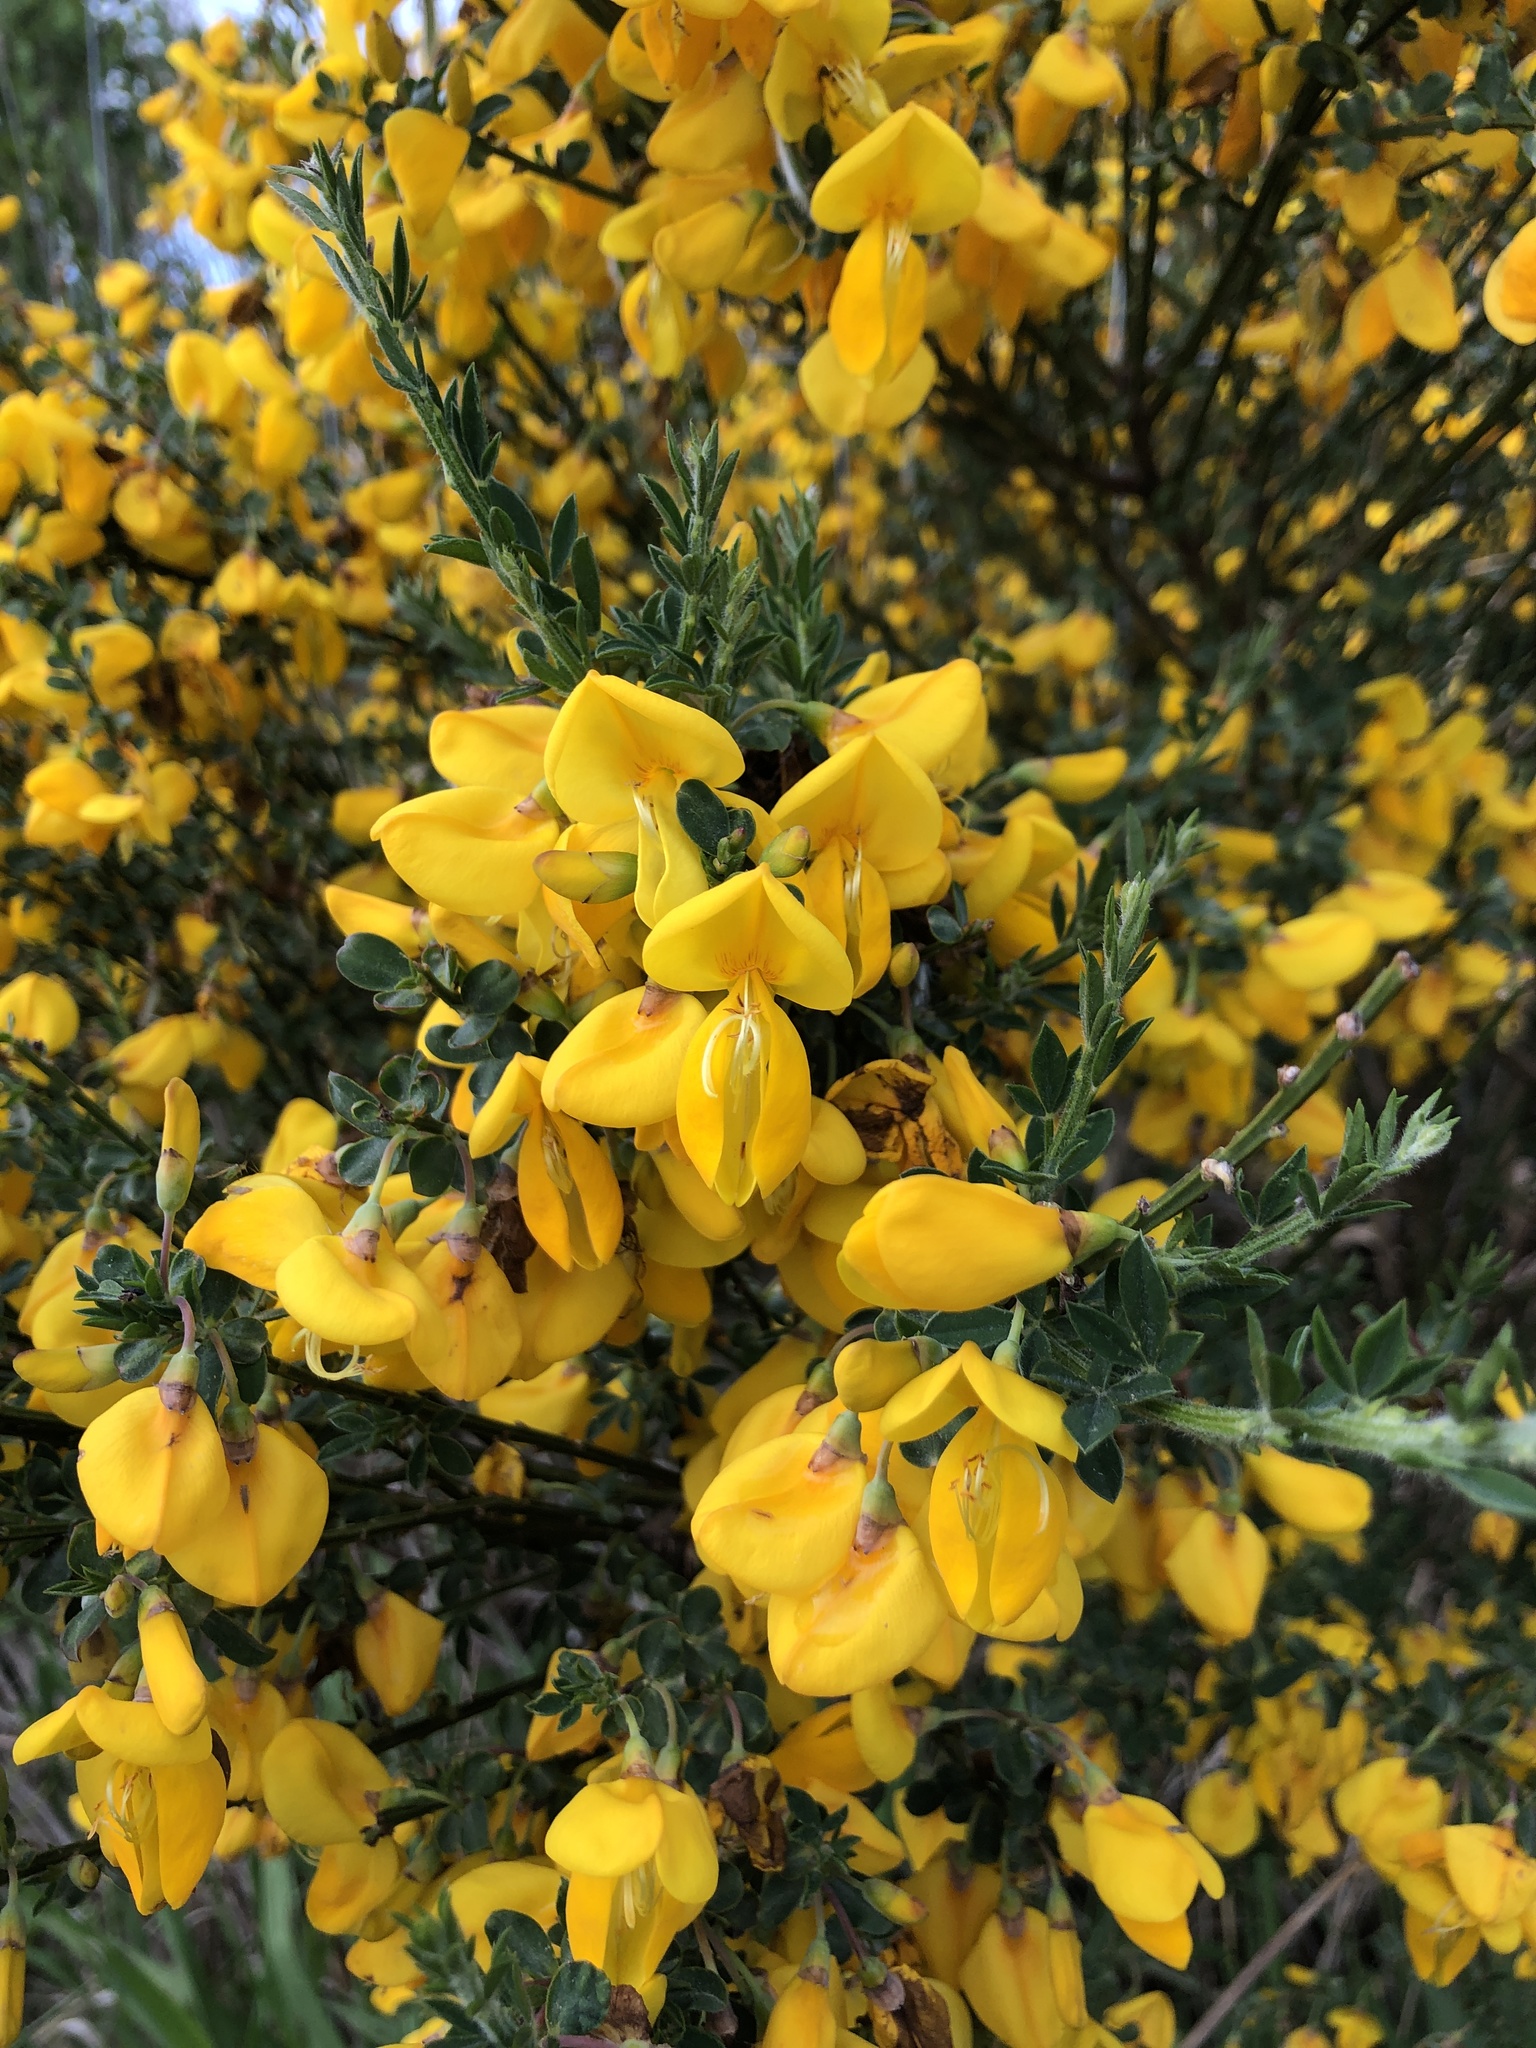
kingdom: Plantae
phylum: Tracheophyta
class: Magnoliopsida
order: Fabales
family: Fabaceae
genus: Cytisus
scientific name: Cytisus scoparius
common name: Scotch broom
